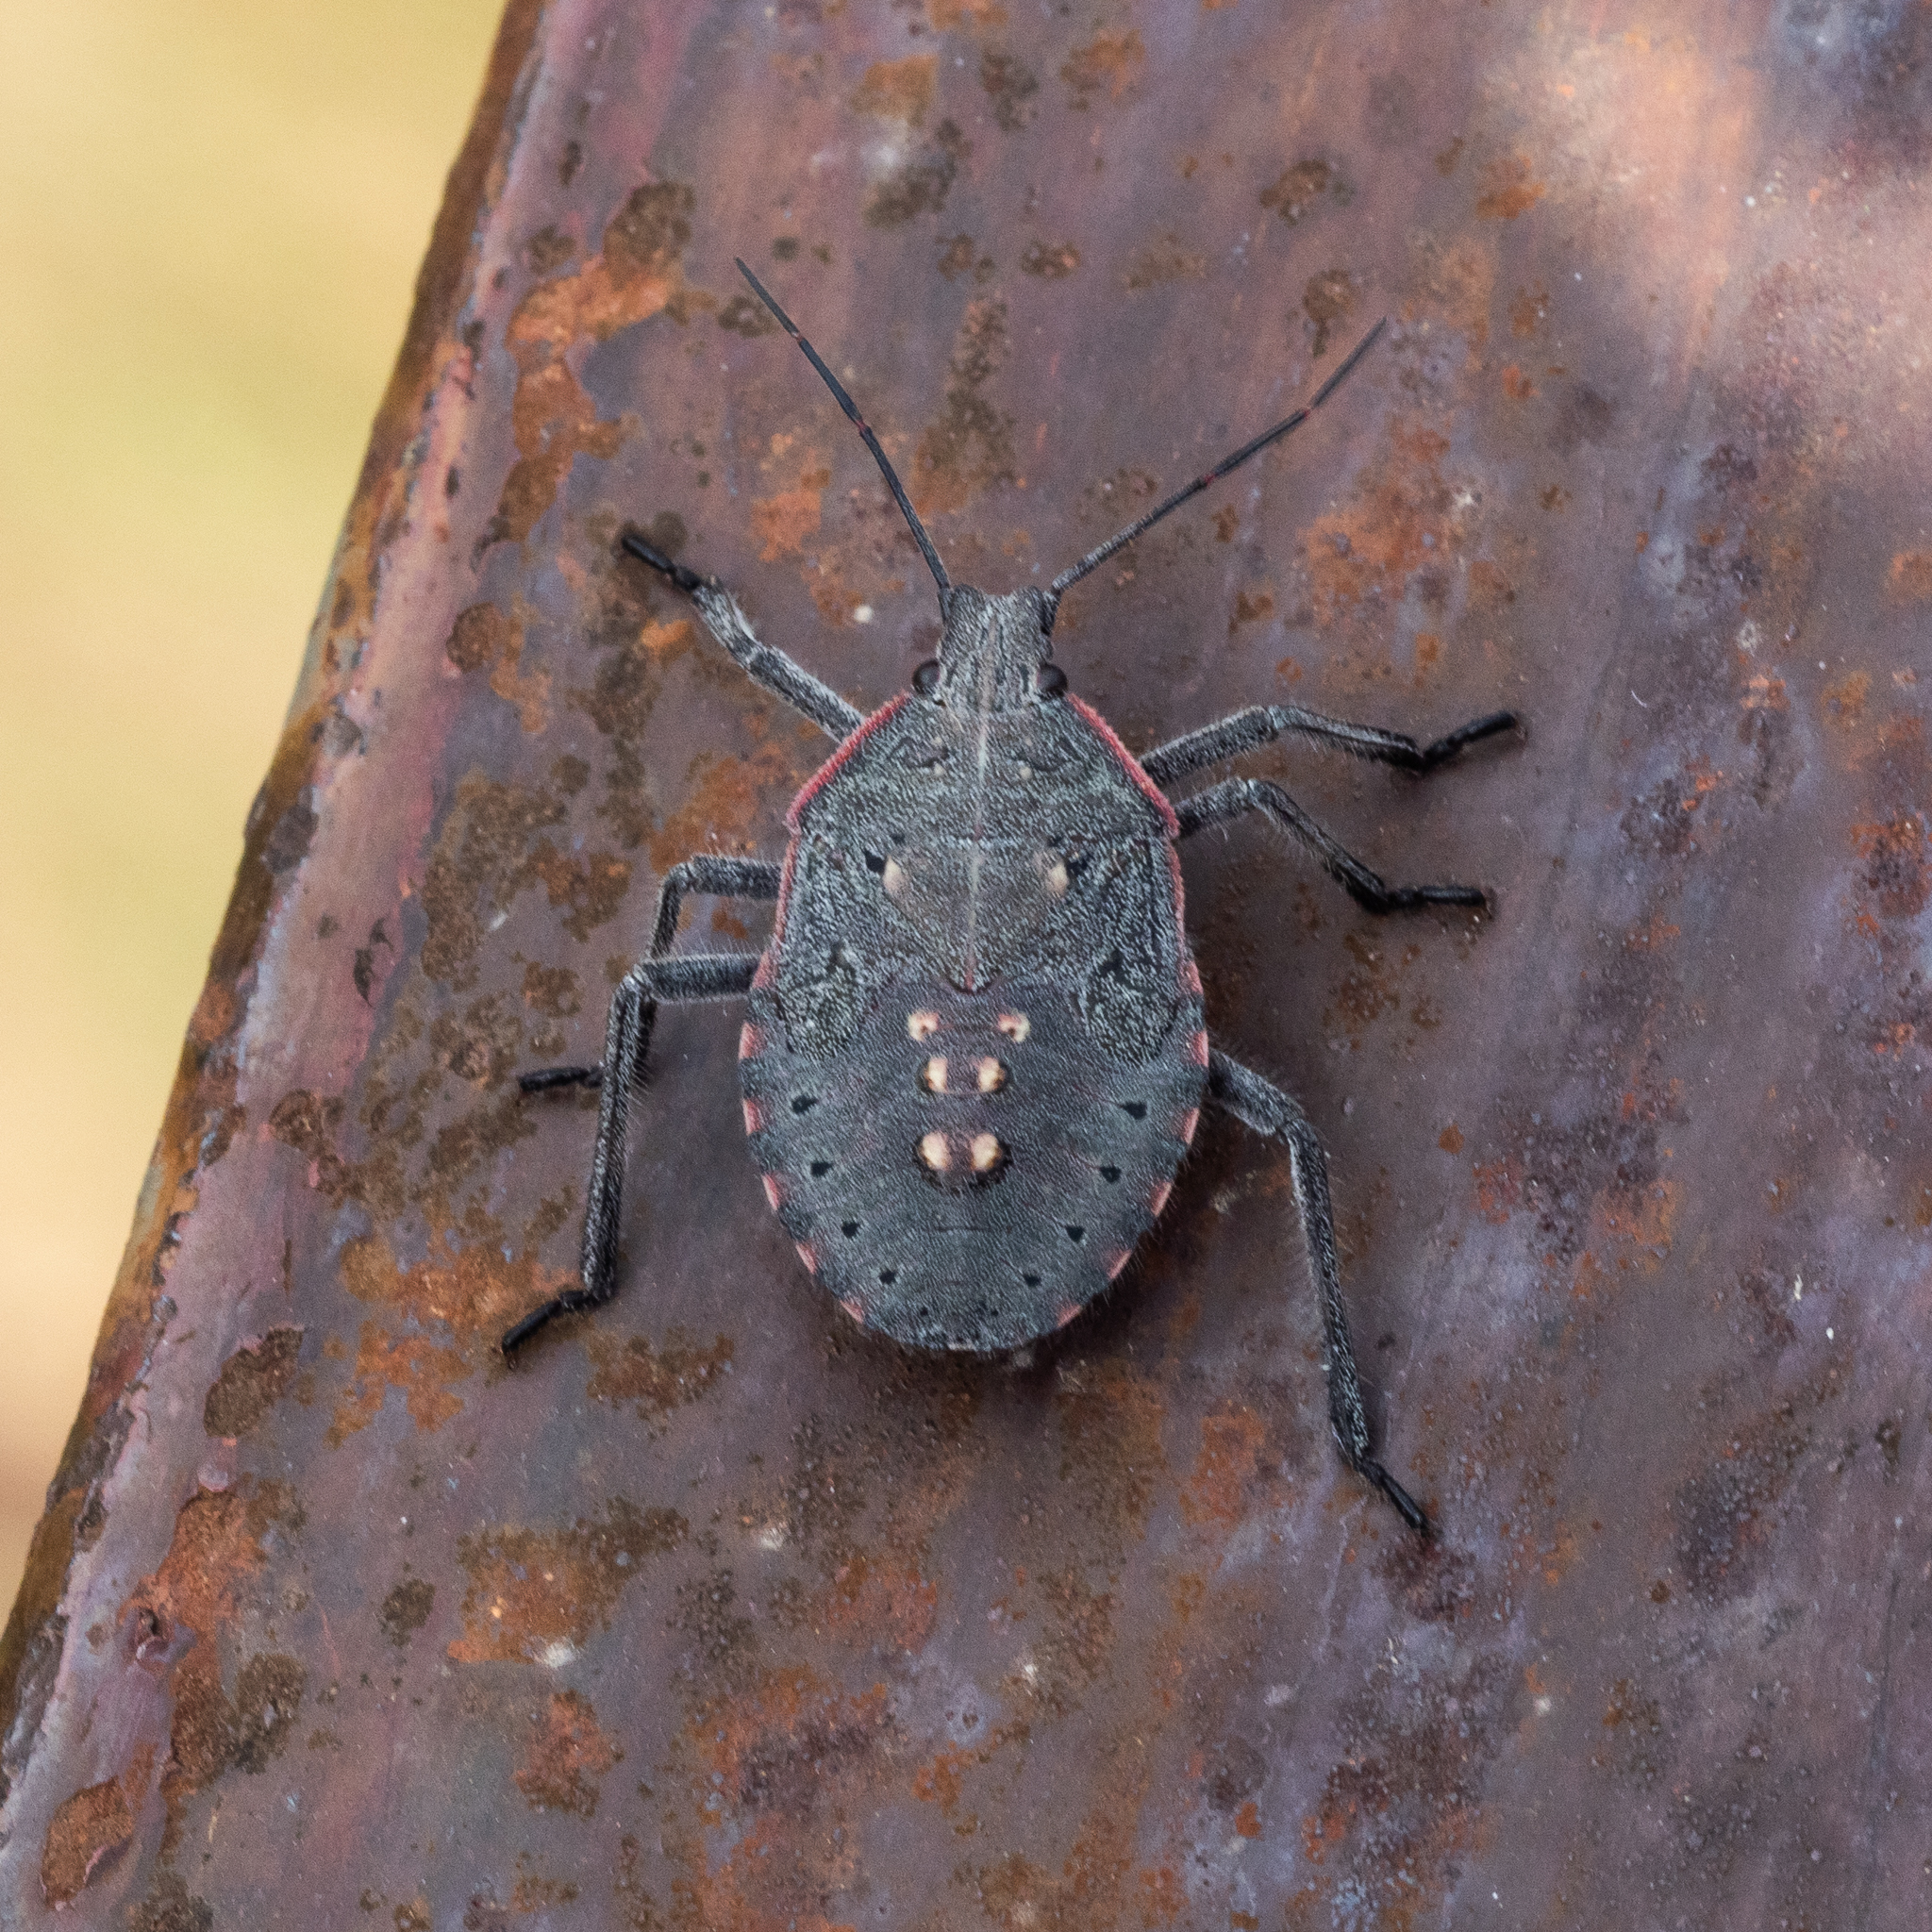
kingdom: Animalia
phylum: Arthropoda
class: Insecta
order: Hemiptera
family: Pentatomidae
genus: Apodiphus
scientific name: Apodiphus amygdali
